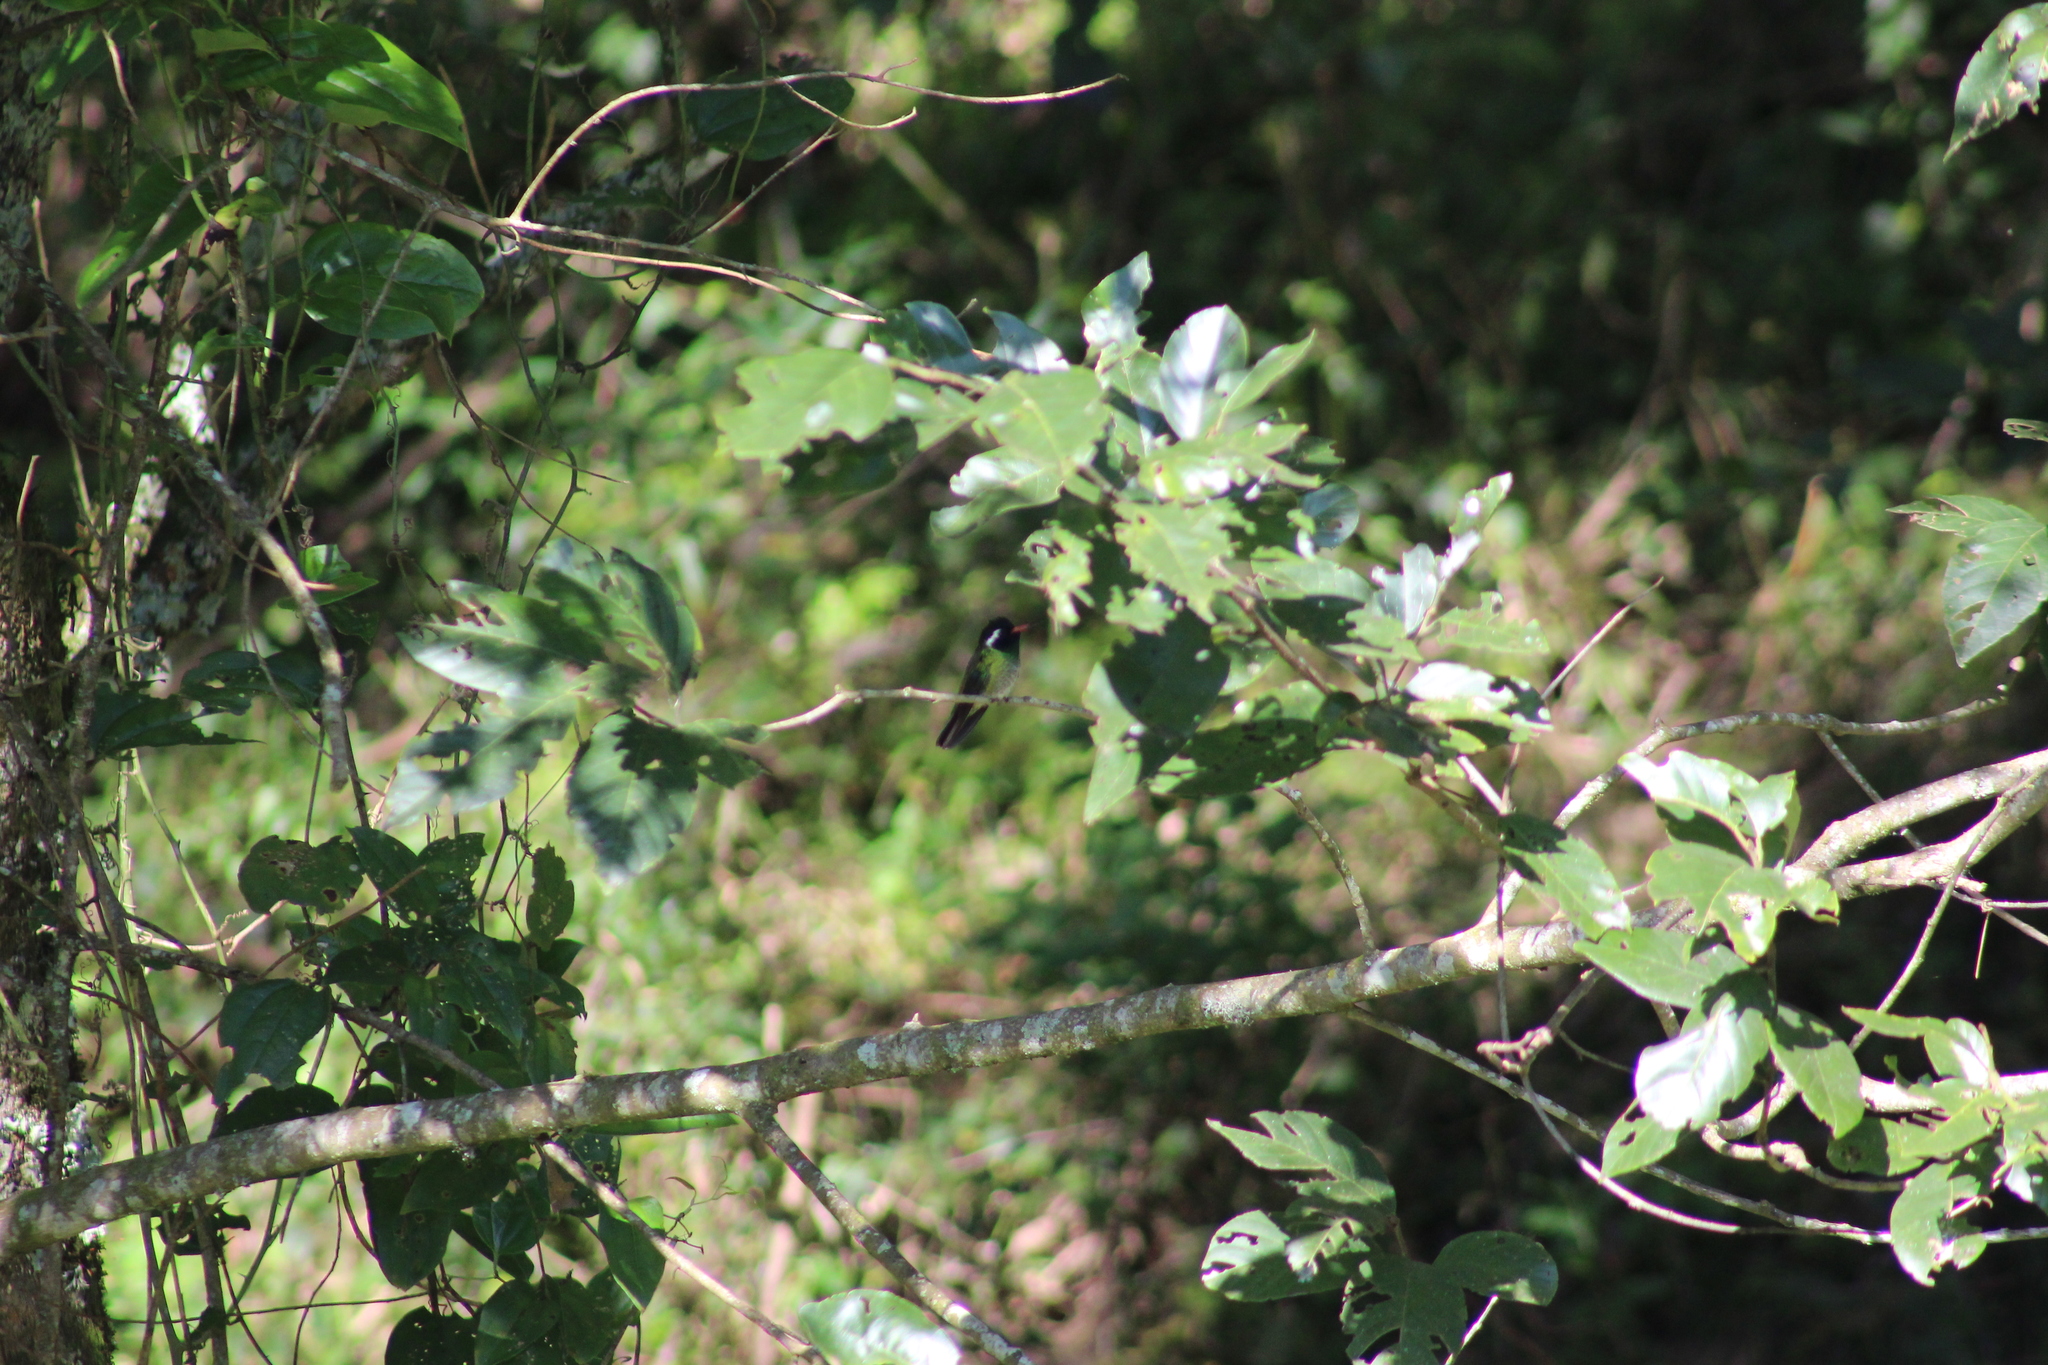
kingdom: Animalia
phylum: Chordata
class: Aves
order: Apodiformes
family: Trochilidae
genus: Basilinna
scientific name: Basilinna leucotis
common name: White-eared hummingbird
